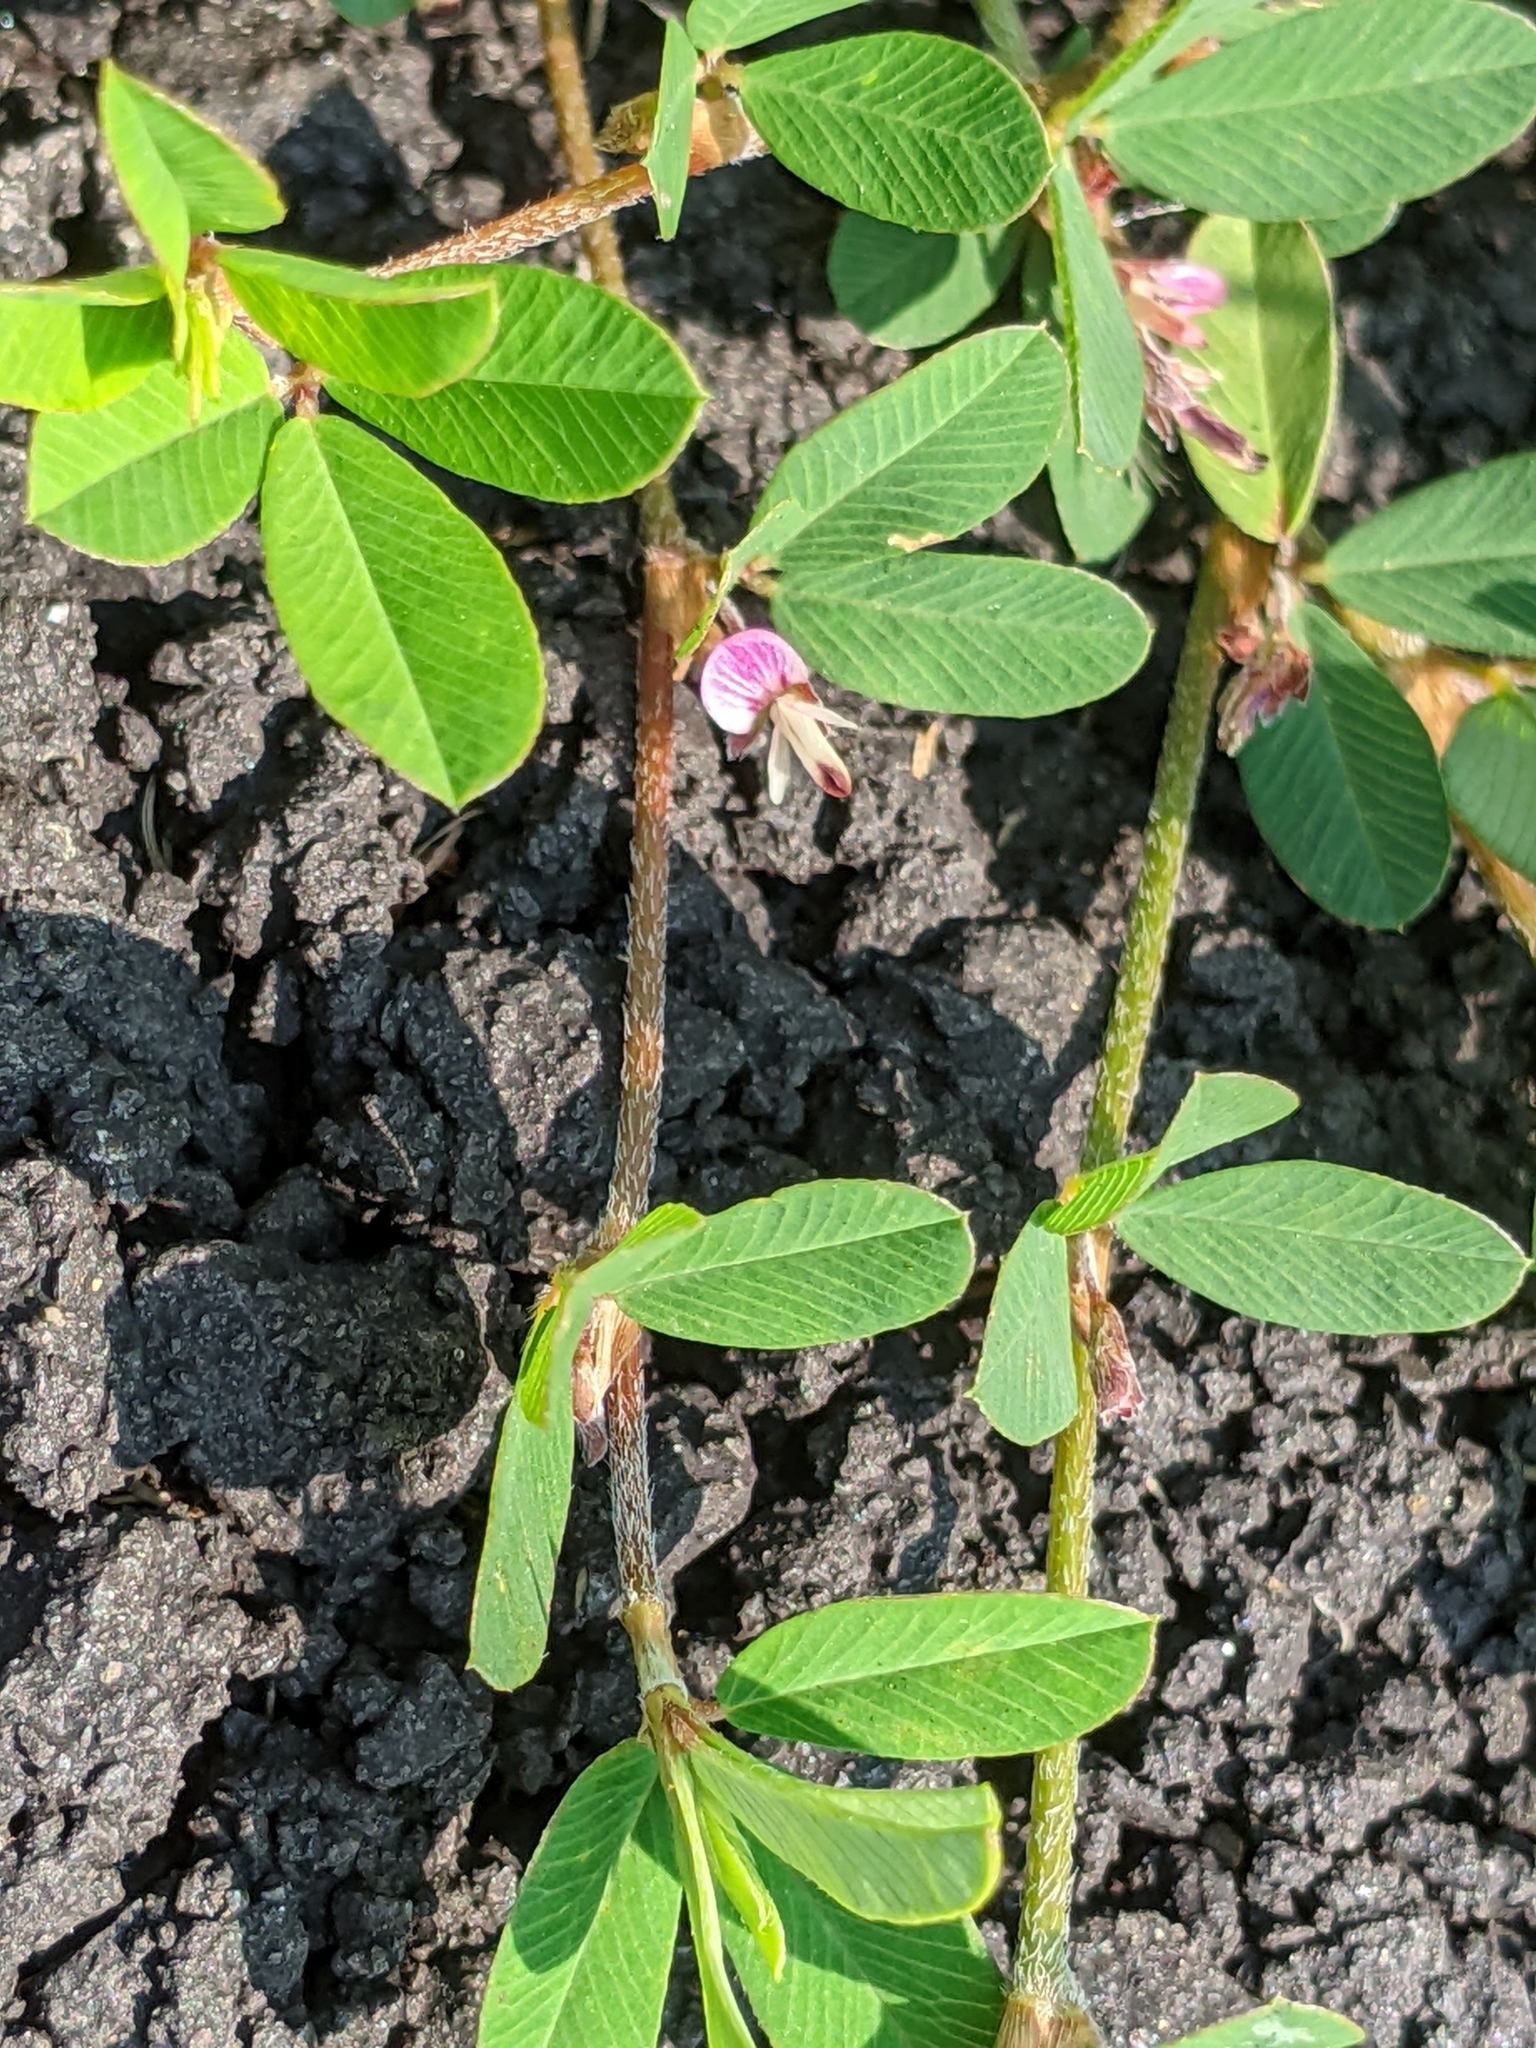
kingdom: Plantae
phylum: Tracheophyta
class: Magnoliopsida
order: Fabales
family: Fabaceae
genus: Kummerowia
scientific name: Kummerowia striata
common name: Japanese clover
